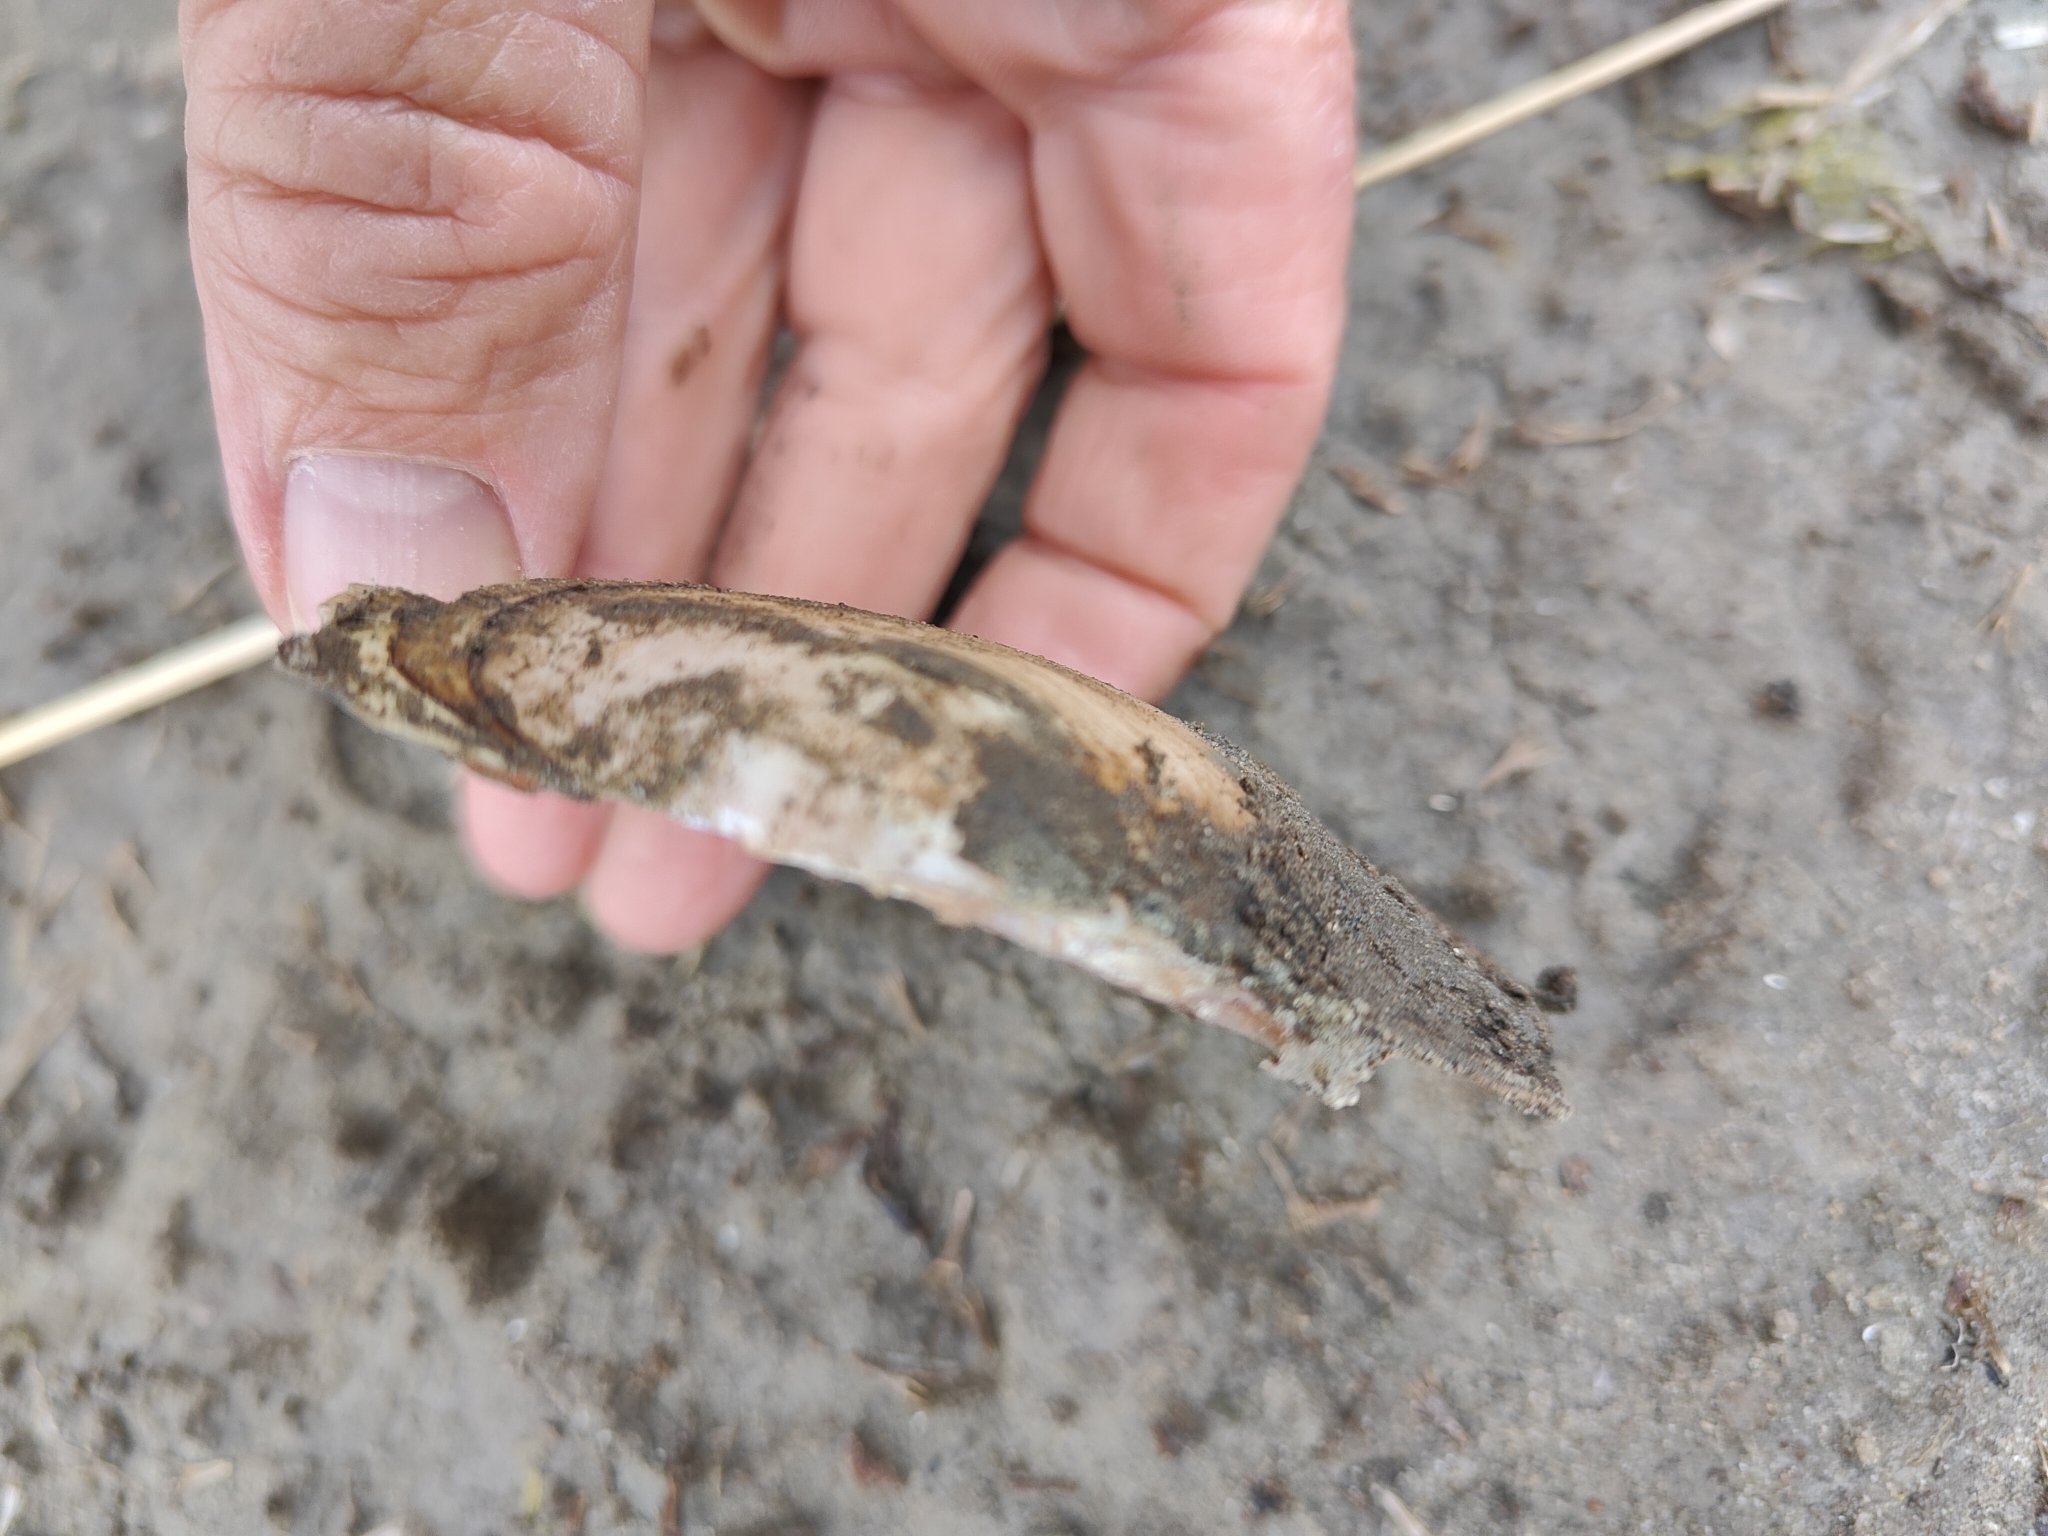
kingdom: Animalia
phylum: Mollusca
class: Bivalvia
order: Unionida
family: Unionidae
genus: Potamilus
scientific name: Potamilus ohiensis
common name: Pink papershell
